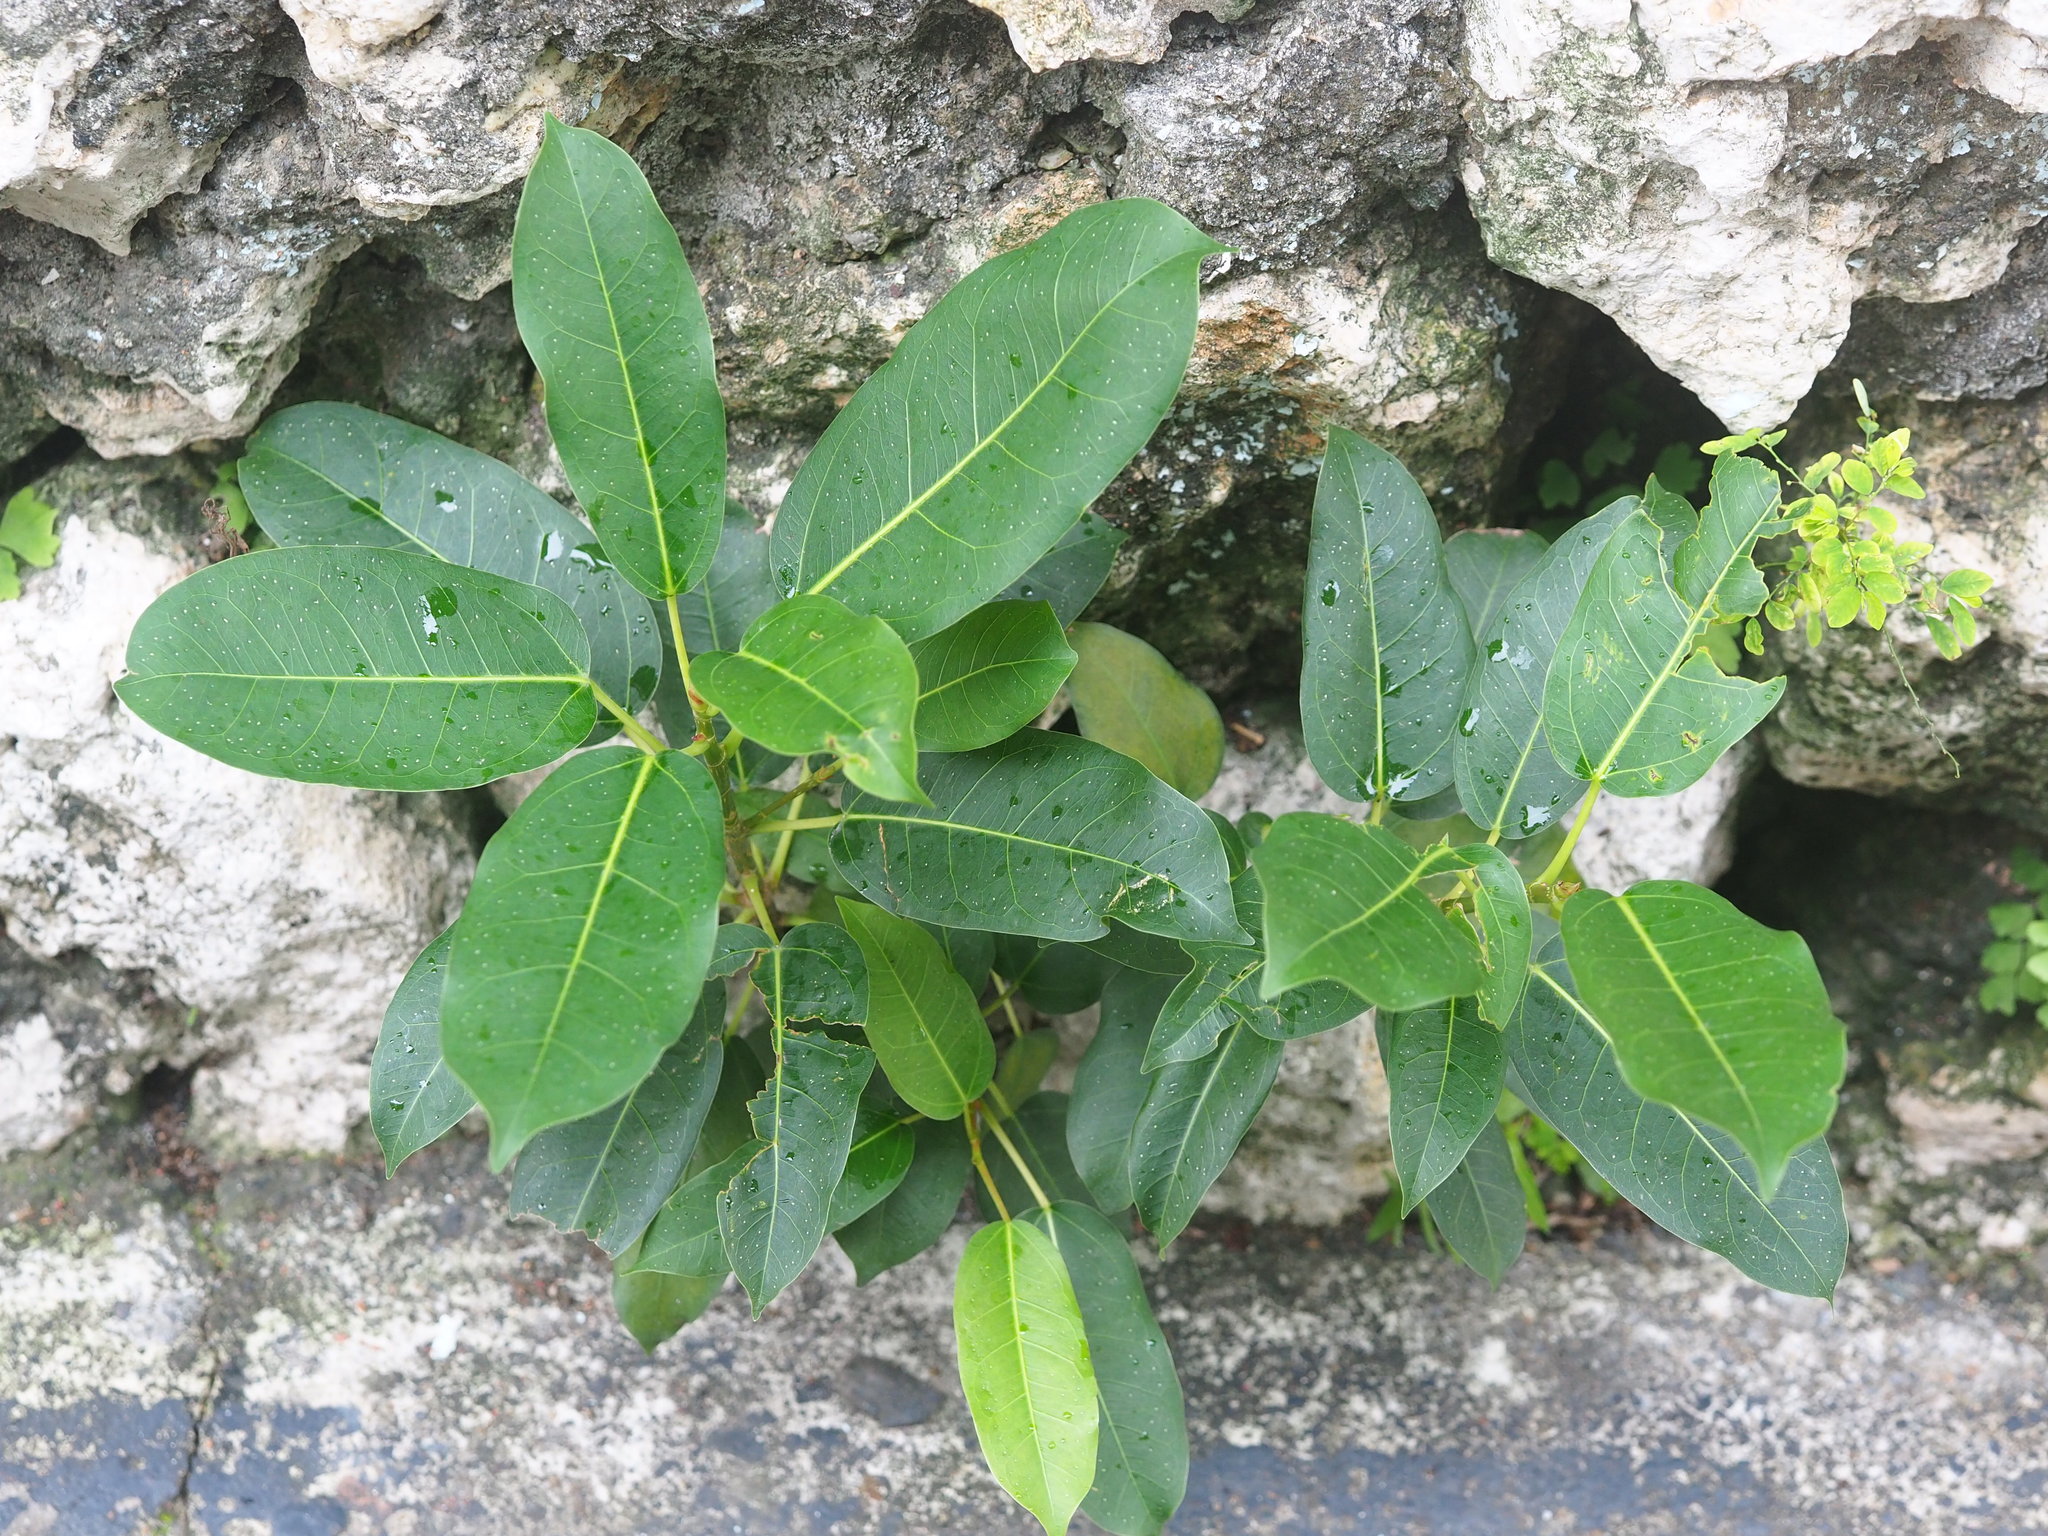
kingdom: Plantae
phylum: Tracheophyta
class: Magnoliopsida
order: Rosales
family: Moraceae
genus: Ficus
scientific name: Ficus subpisocarpa
